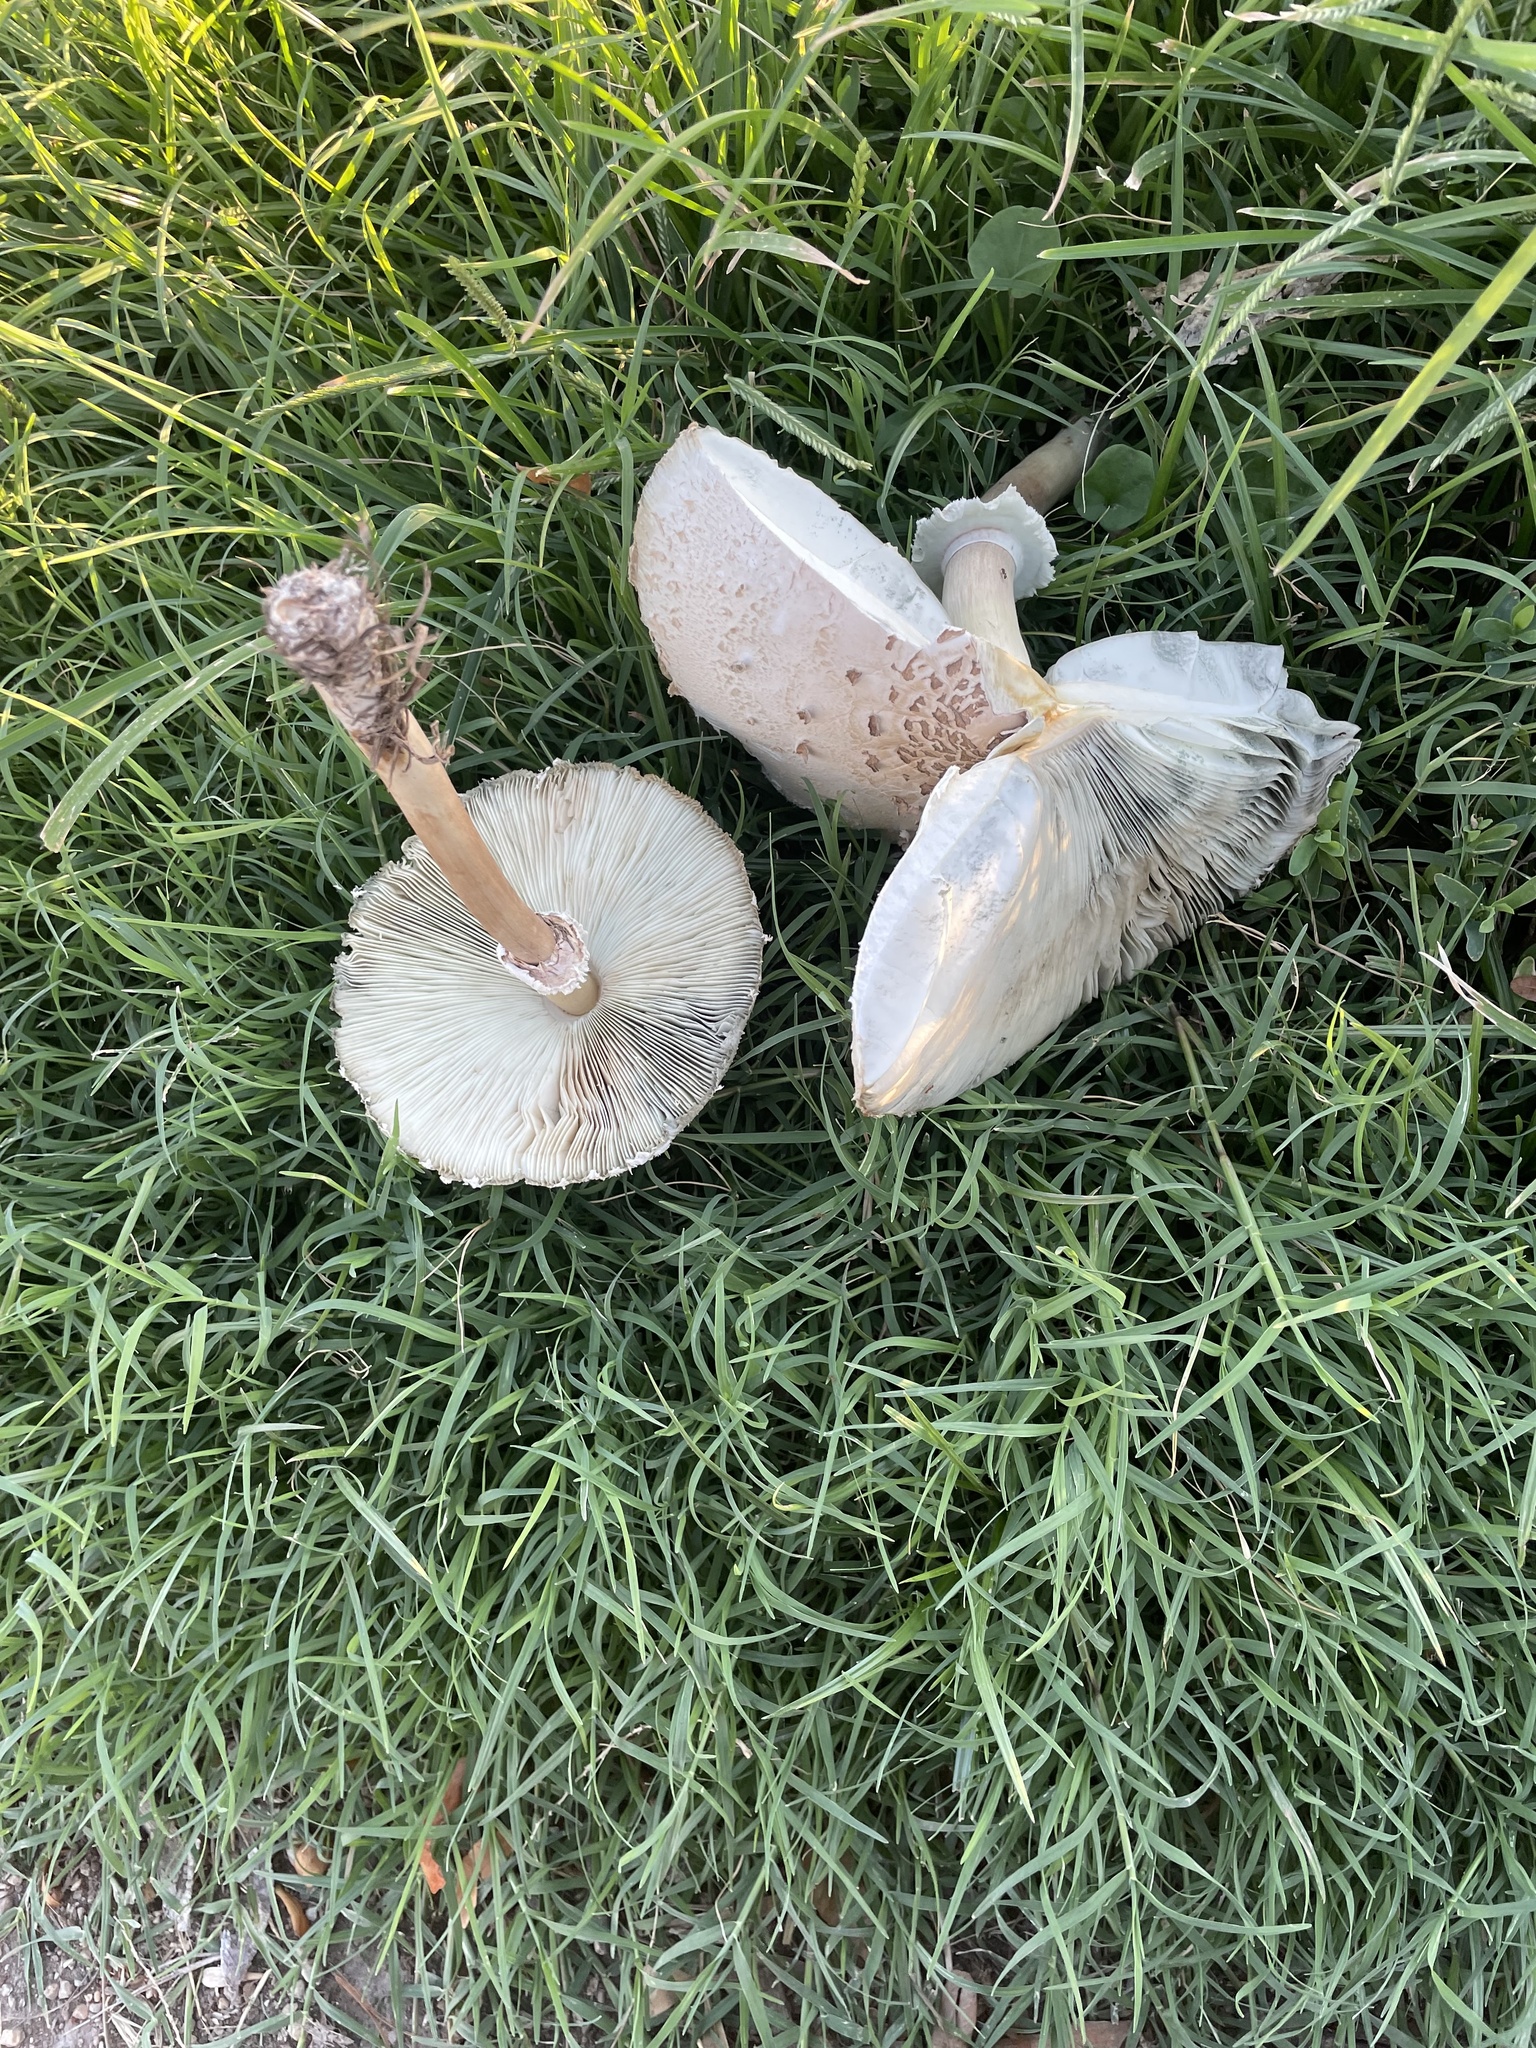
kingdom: Fungi
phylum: Basidiomycota
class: Agaricomycetes
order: Agaricales
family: Agaricaceae
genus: Chlorophyllum
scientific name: Chlorophyllum molybdites
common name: False parasol
